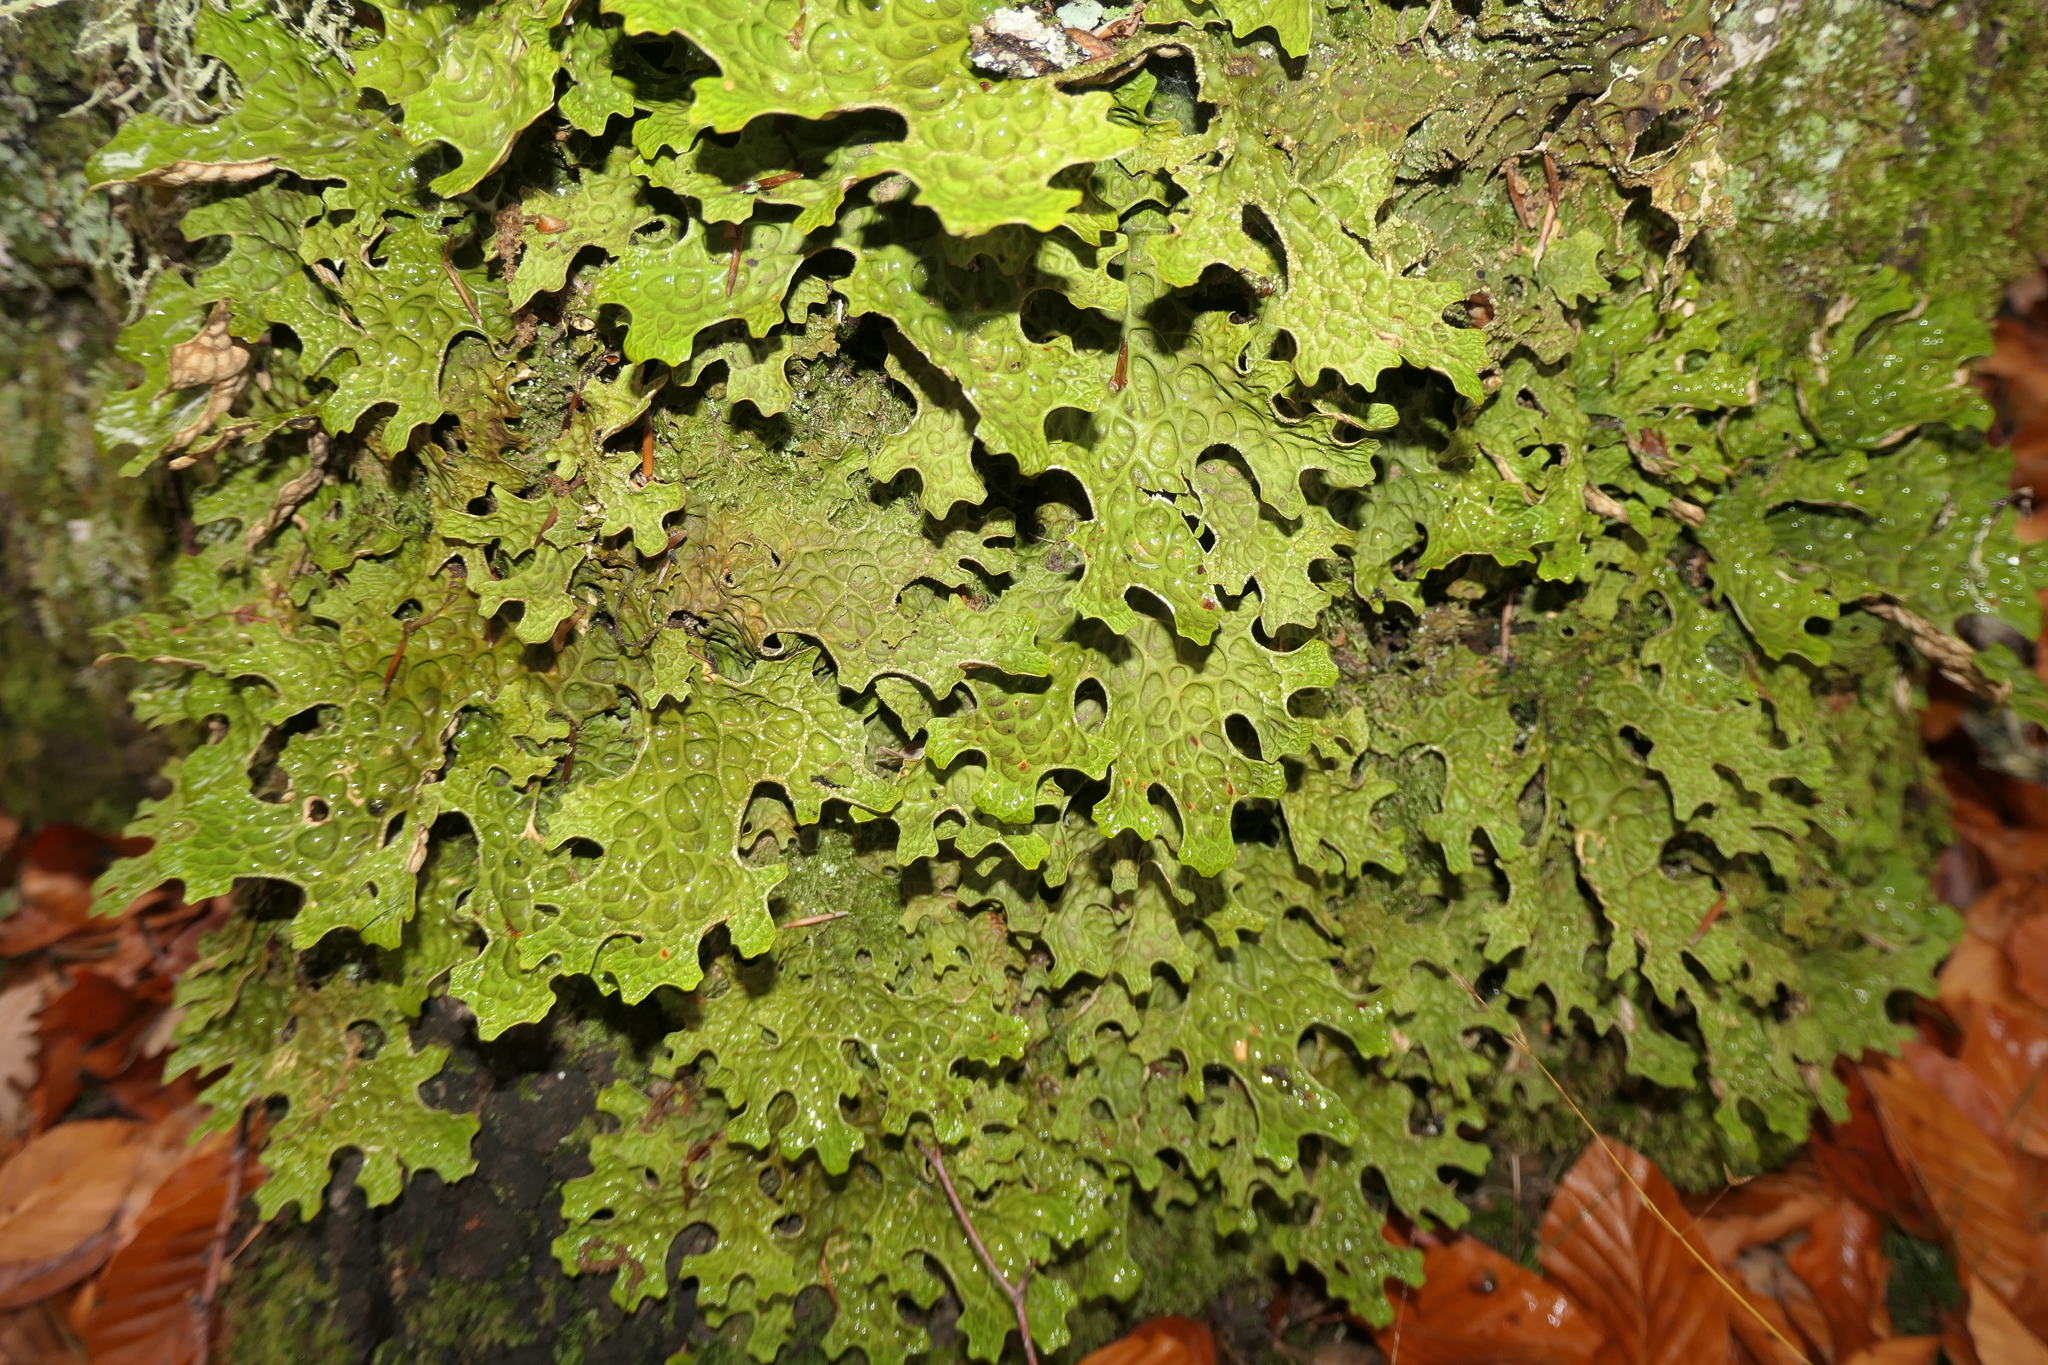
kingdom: Fungi
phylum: Ascomycota
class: Lecanoromycetes
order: Peltigerales
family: Lobariaceae
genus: Lobaria
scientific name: Lobaria pulmonaria
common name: Lungwort
